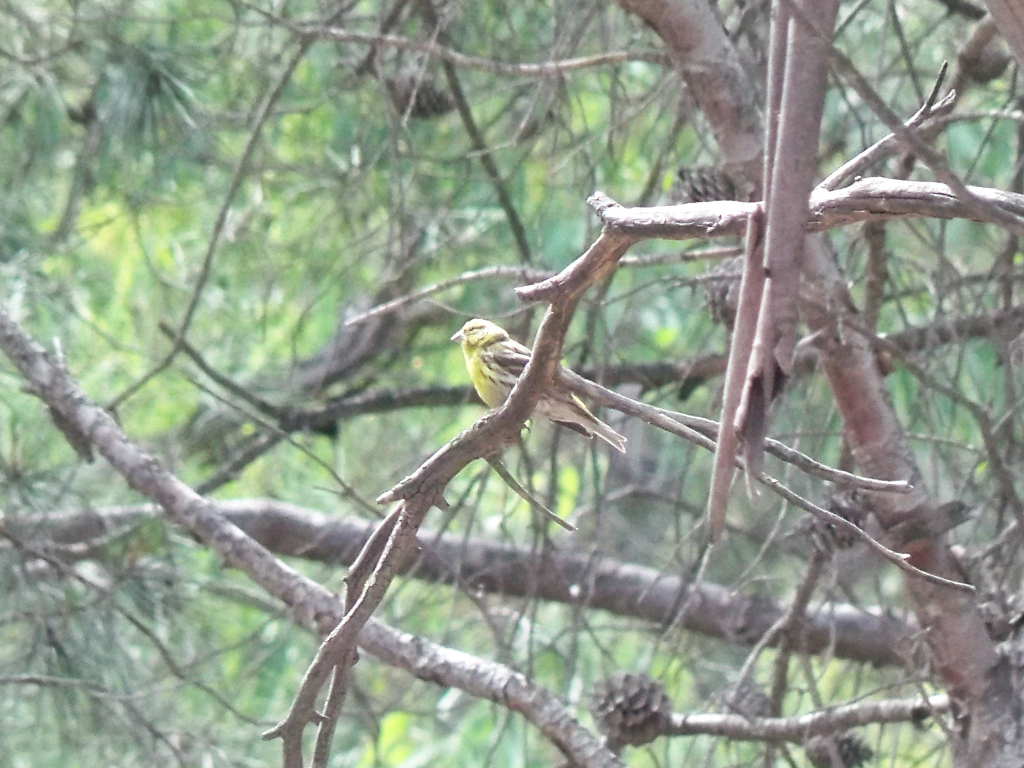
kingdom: Animalia
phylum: Chordata
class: Aves
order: Passeriformes
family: Fringillidae
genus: Serinus
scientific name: Serinus serinus
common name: European serin
